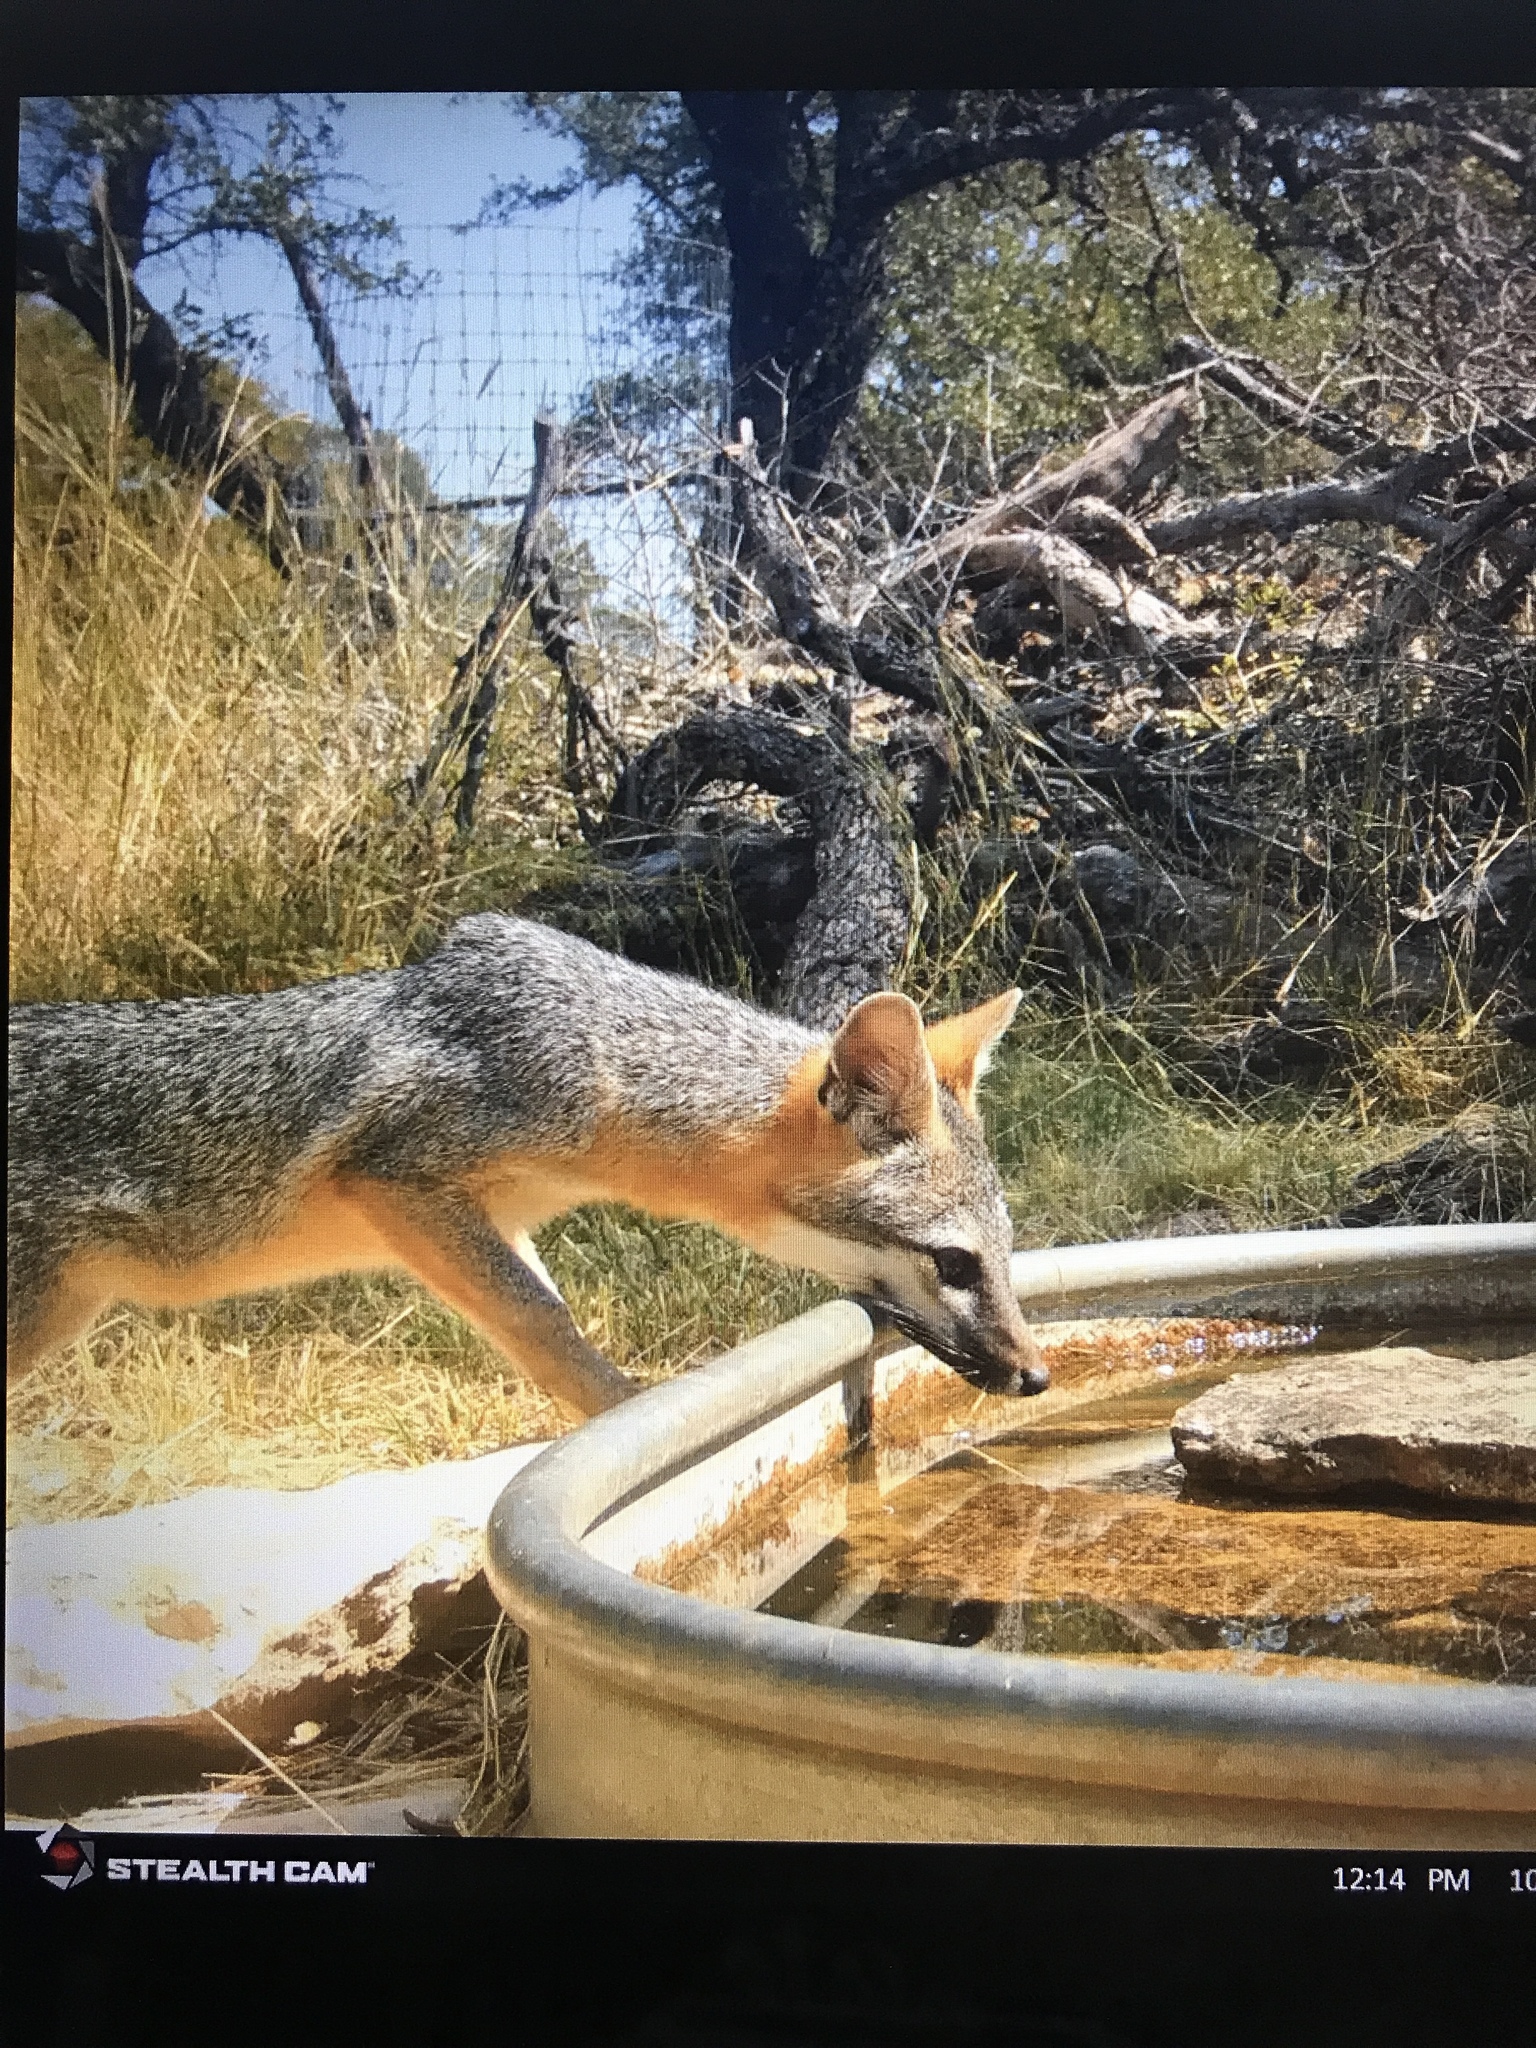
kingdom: Animalia
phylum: Chordata
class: Mammalia
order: Carnivora
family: Canidae
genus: Urocyon
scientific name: Urocyon cinereoargenteus
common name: Gray fox
